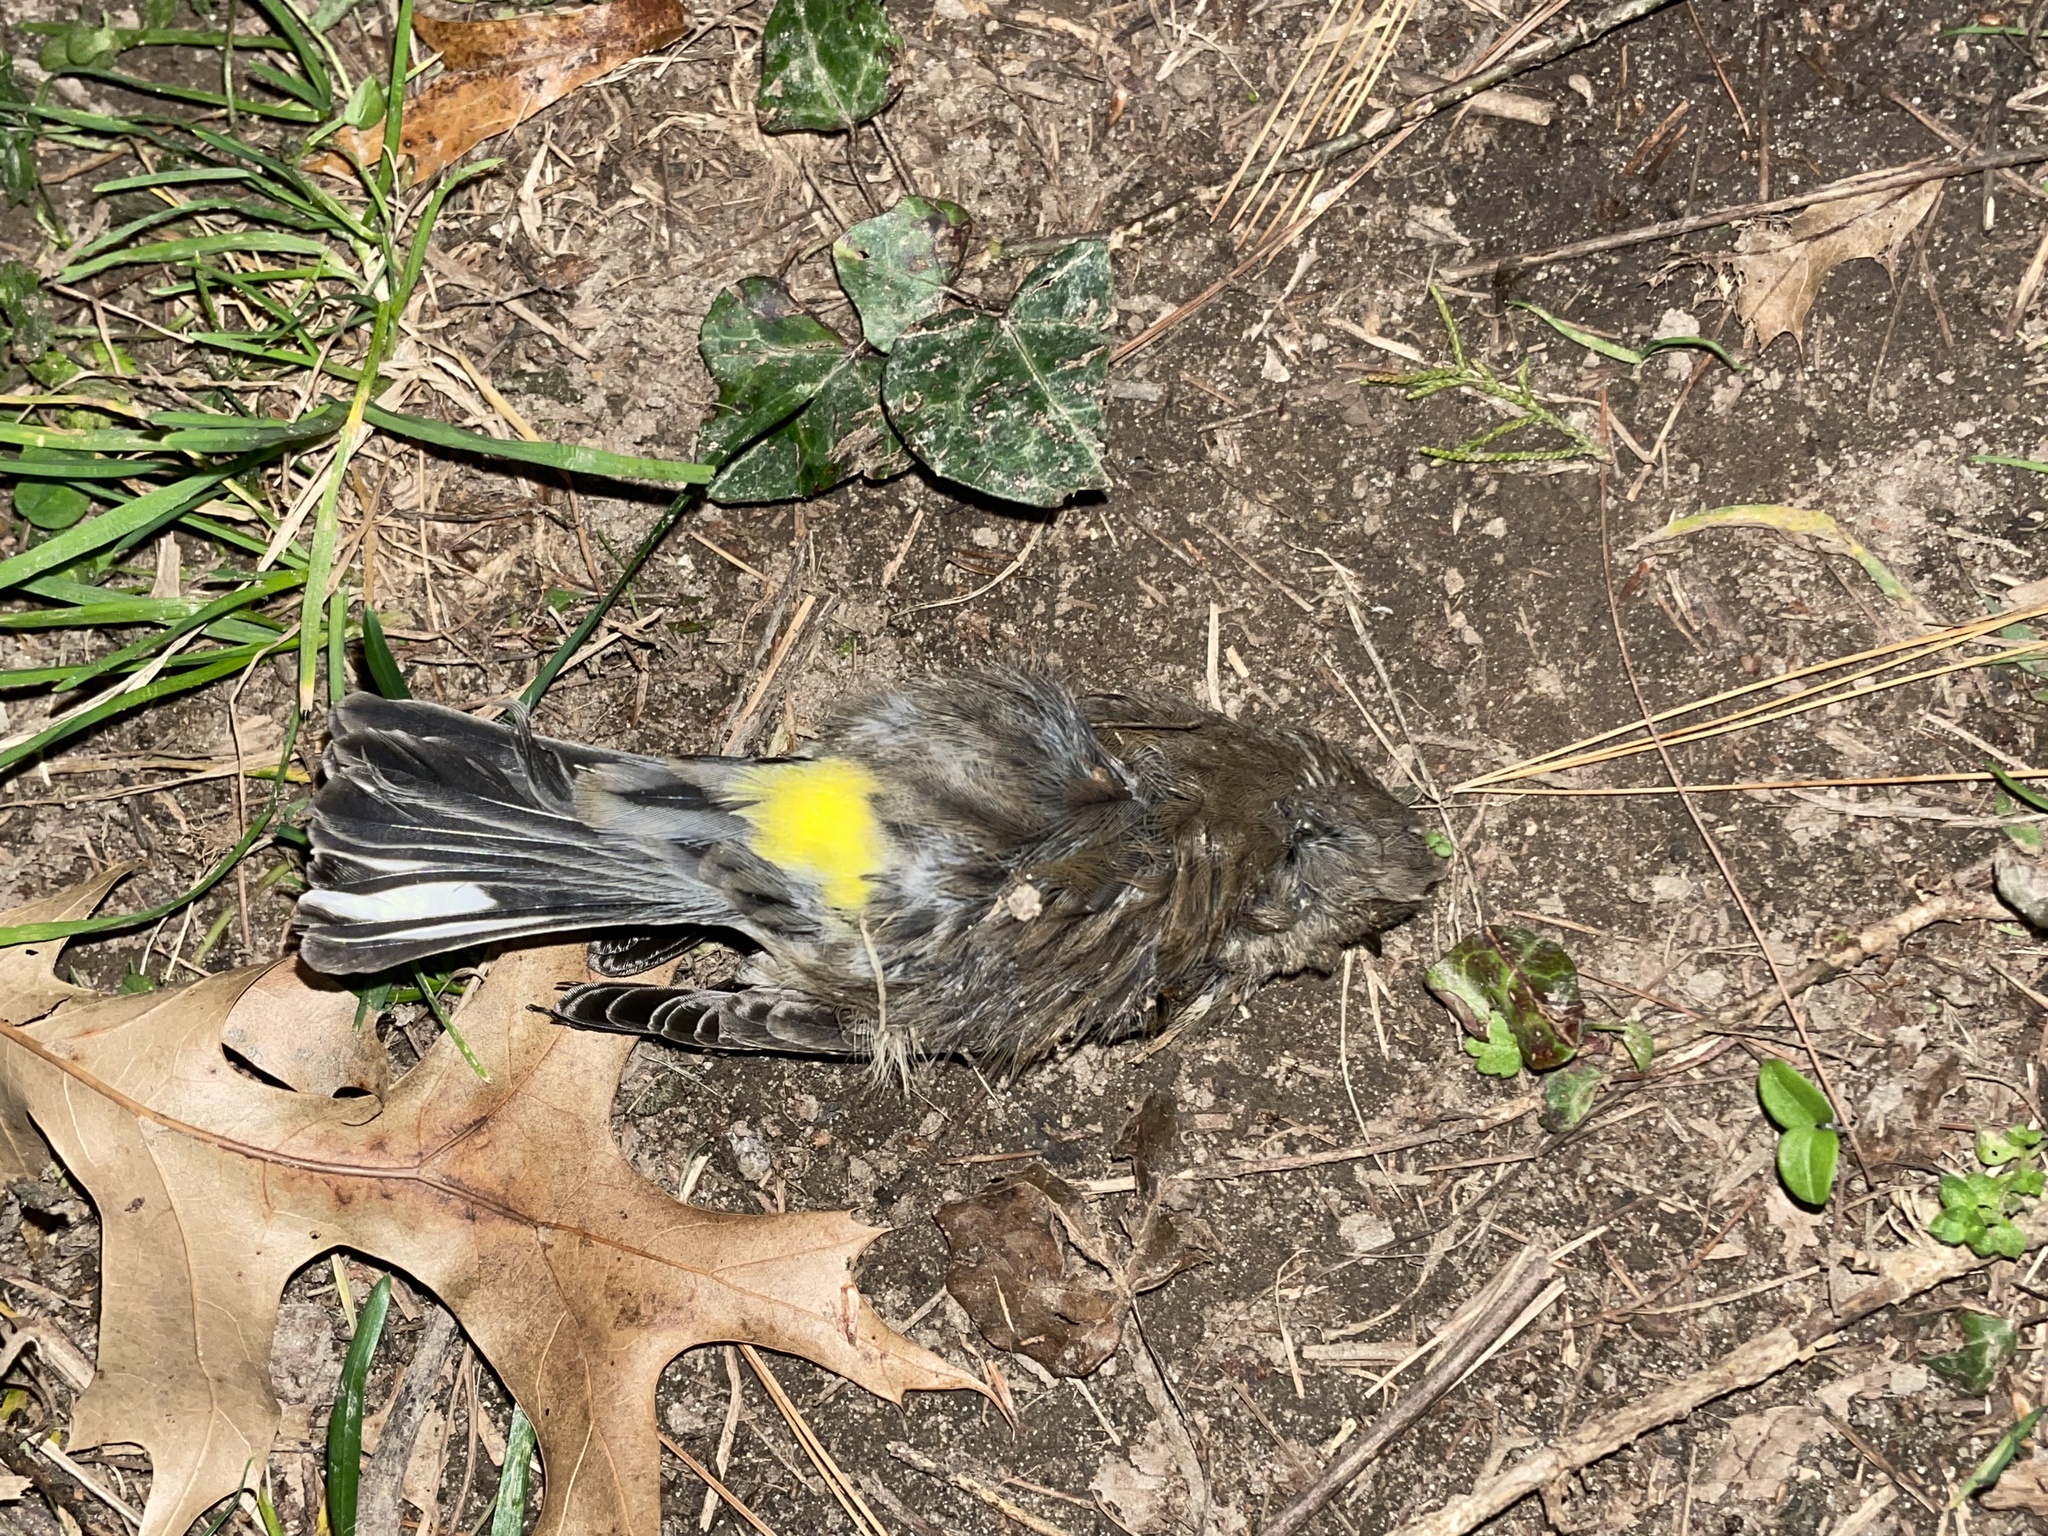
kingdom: Animalia
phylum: Chordata
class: Aves
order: Passeriformes
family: Parulidae
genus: Setophaga
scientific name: Setophaga coronata
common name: Myrtle warbler
